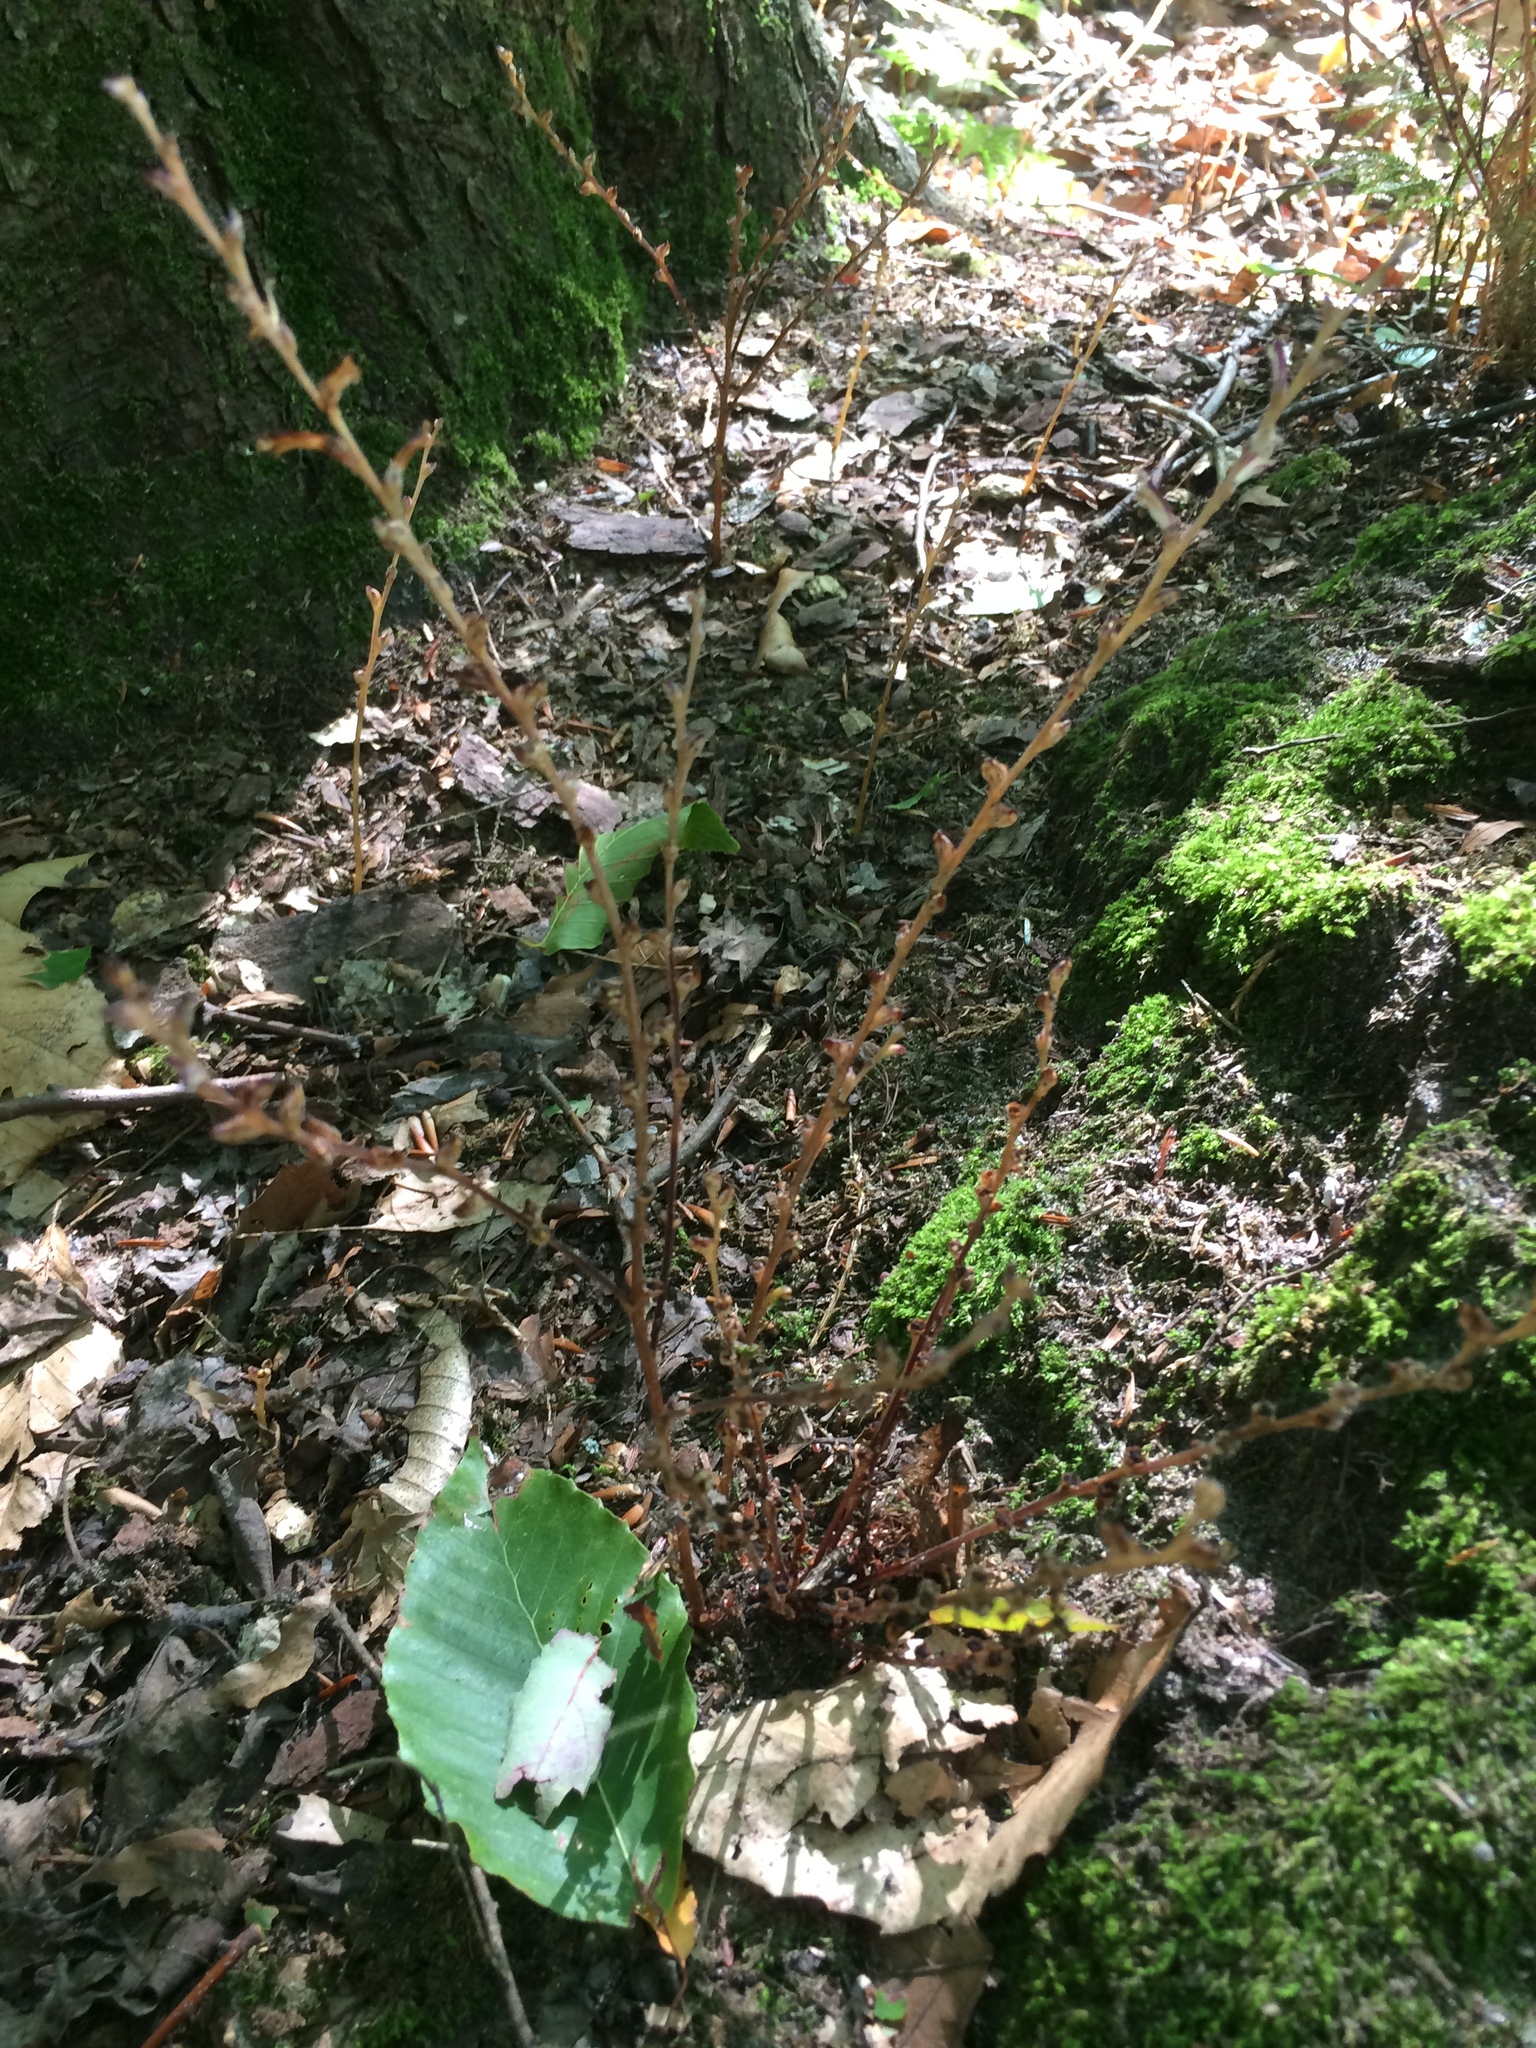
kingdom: Plantae
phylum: Tracheophyta
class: Magnoliopsida
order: Lamiales
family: Orobanchaceae
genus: Epifagus
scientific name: Epifagus virginiana
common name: Beechdrops
